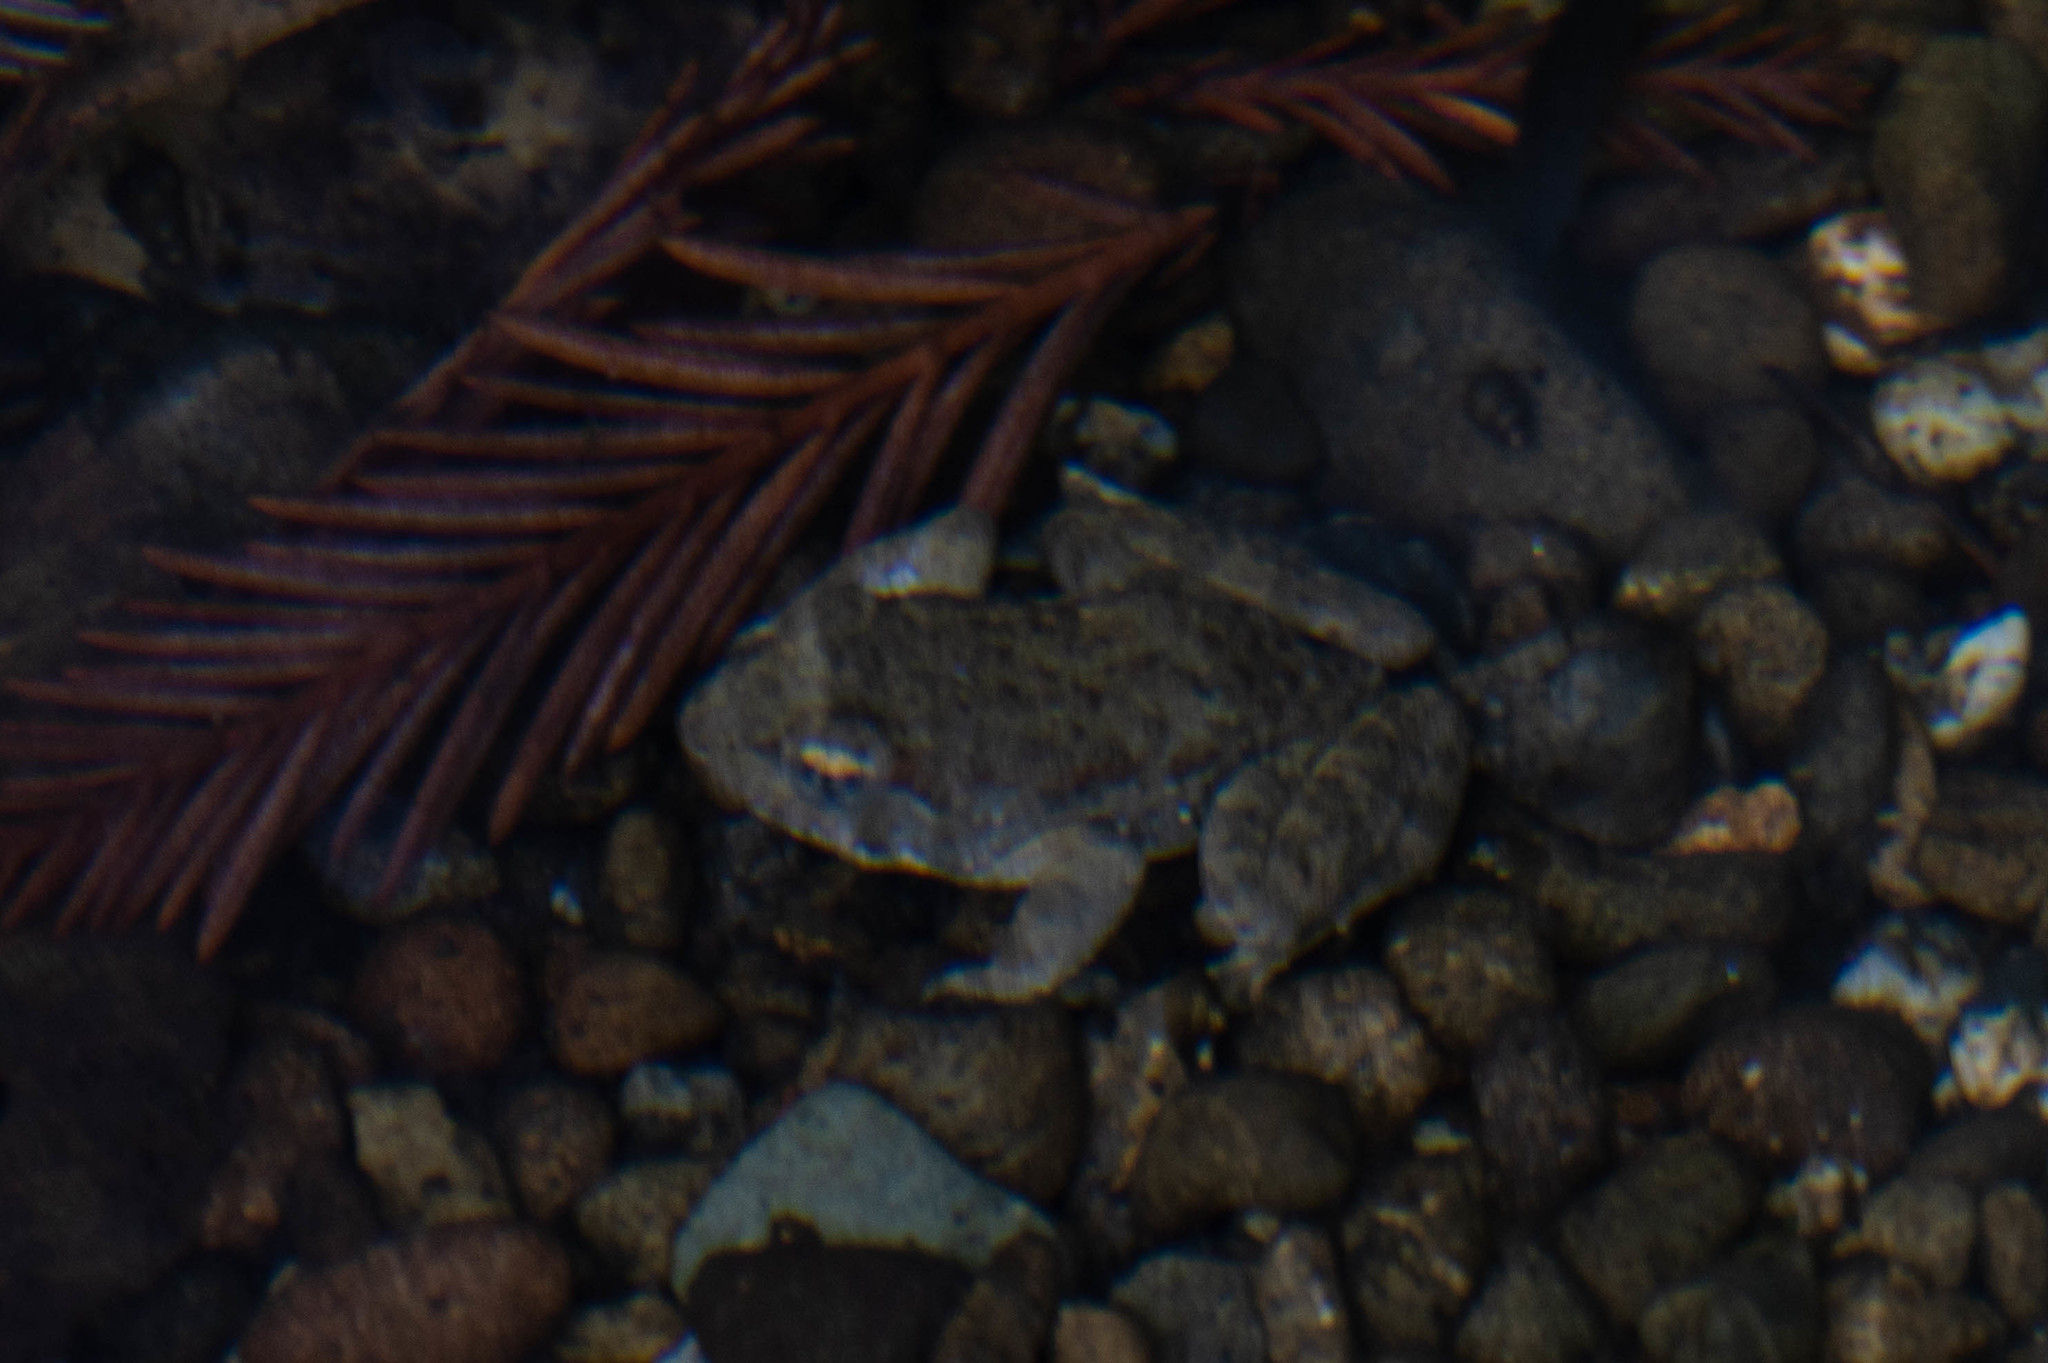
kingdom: Animalia
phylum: Chordata
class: Amphibia
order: Anura
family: Ranidae
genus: Rana
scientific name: Rana boylii
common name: Foothill yellow-legged frog
